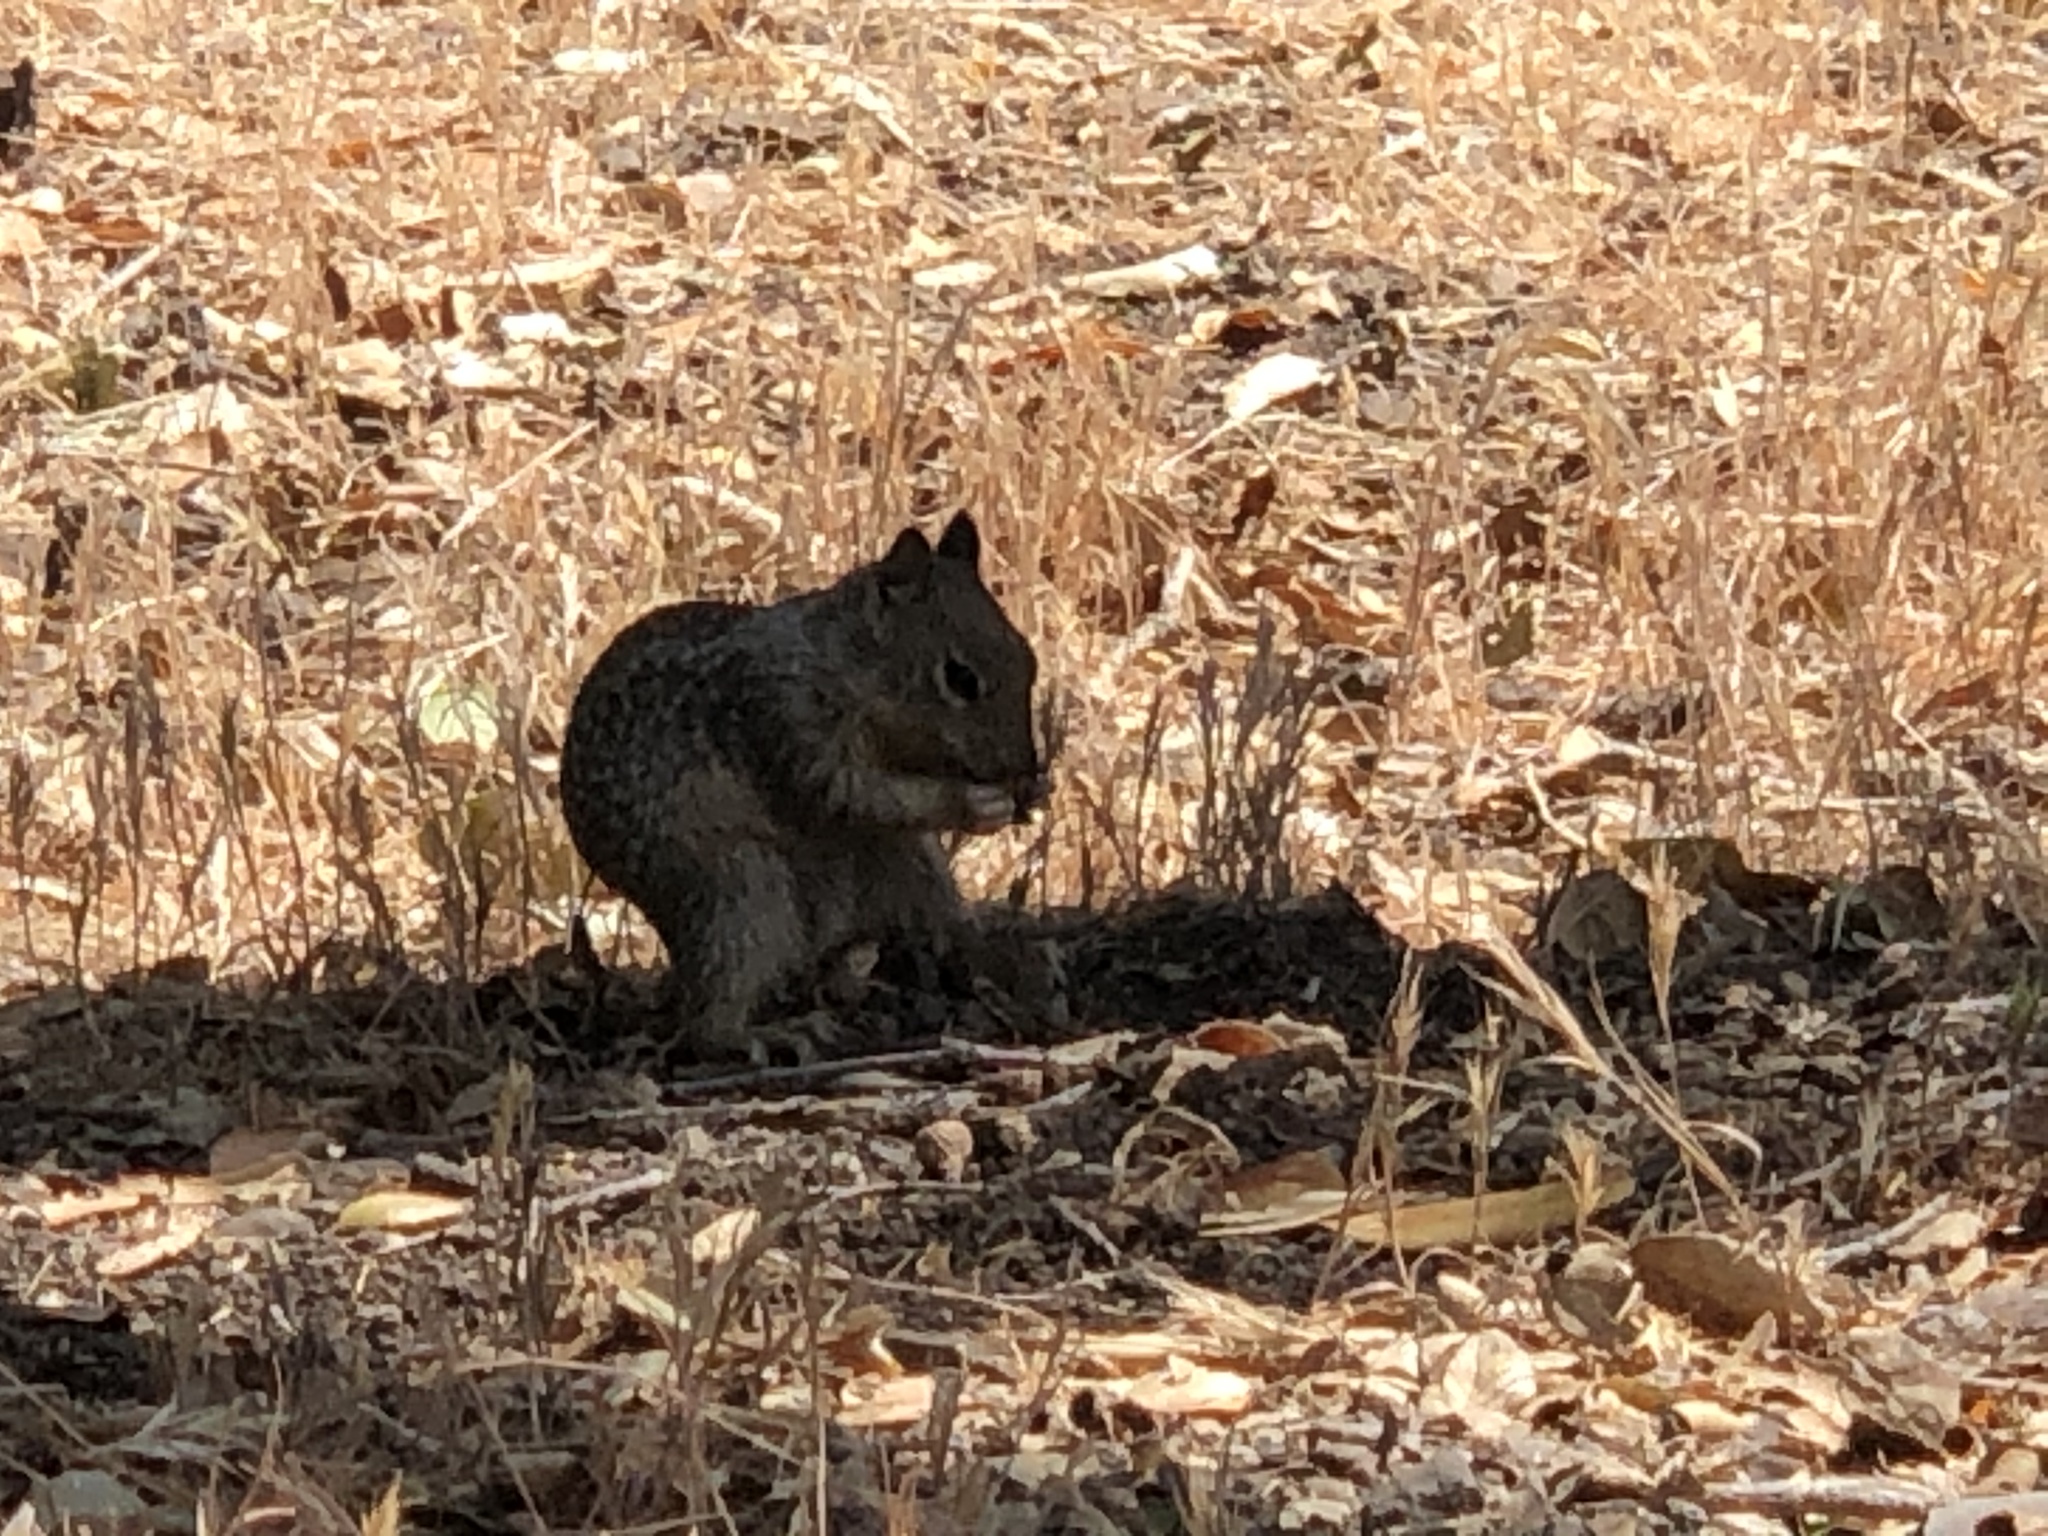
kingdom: Animalia
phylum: Chordata
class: Mammalia
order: Rodentia
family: Sciuridae
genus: Otospermophilus
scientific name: Otospermophilus beecheyi
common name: California ground squirrel
